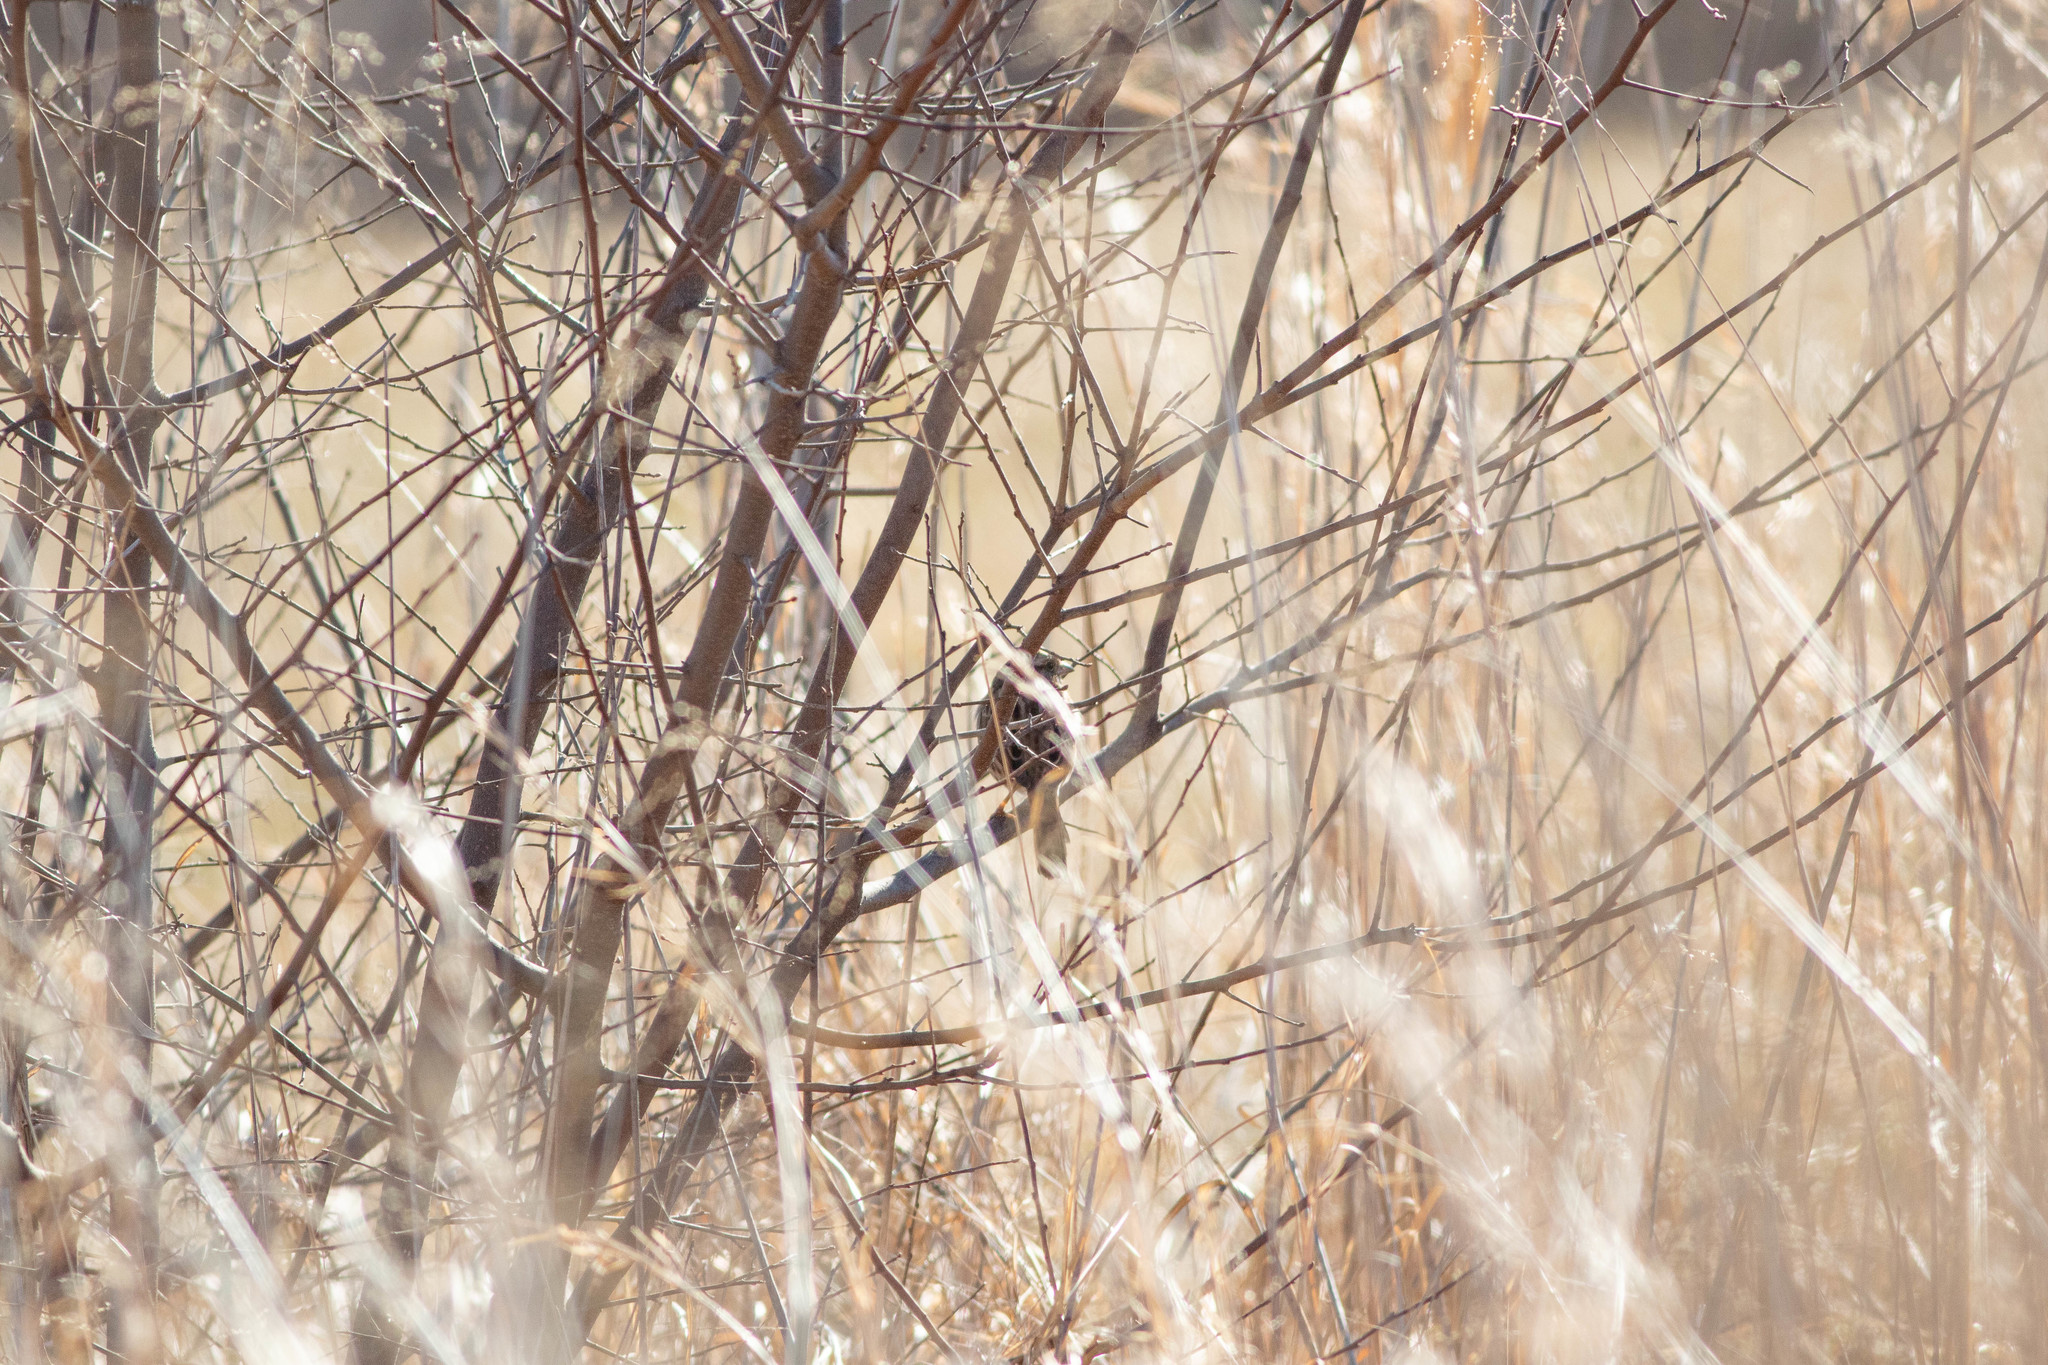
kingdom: Animalia
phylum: Chordata
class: Aves
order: Passeriformes
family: Passerellidae
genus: Melospiza
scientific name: Melospiza melodia
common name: Song sparrow
